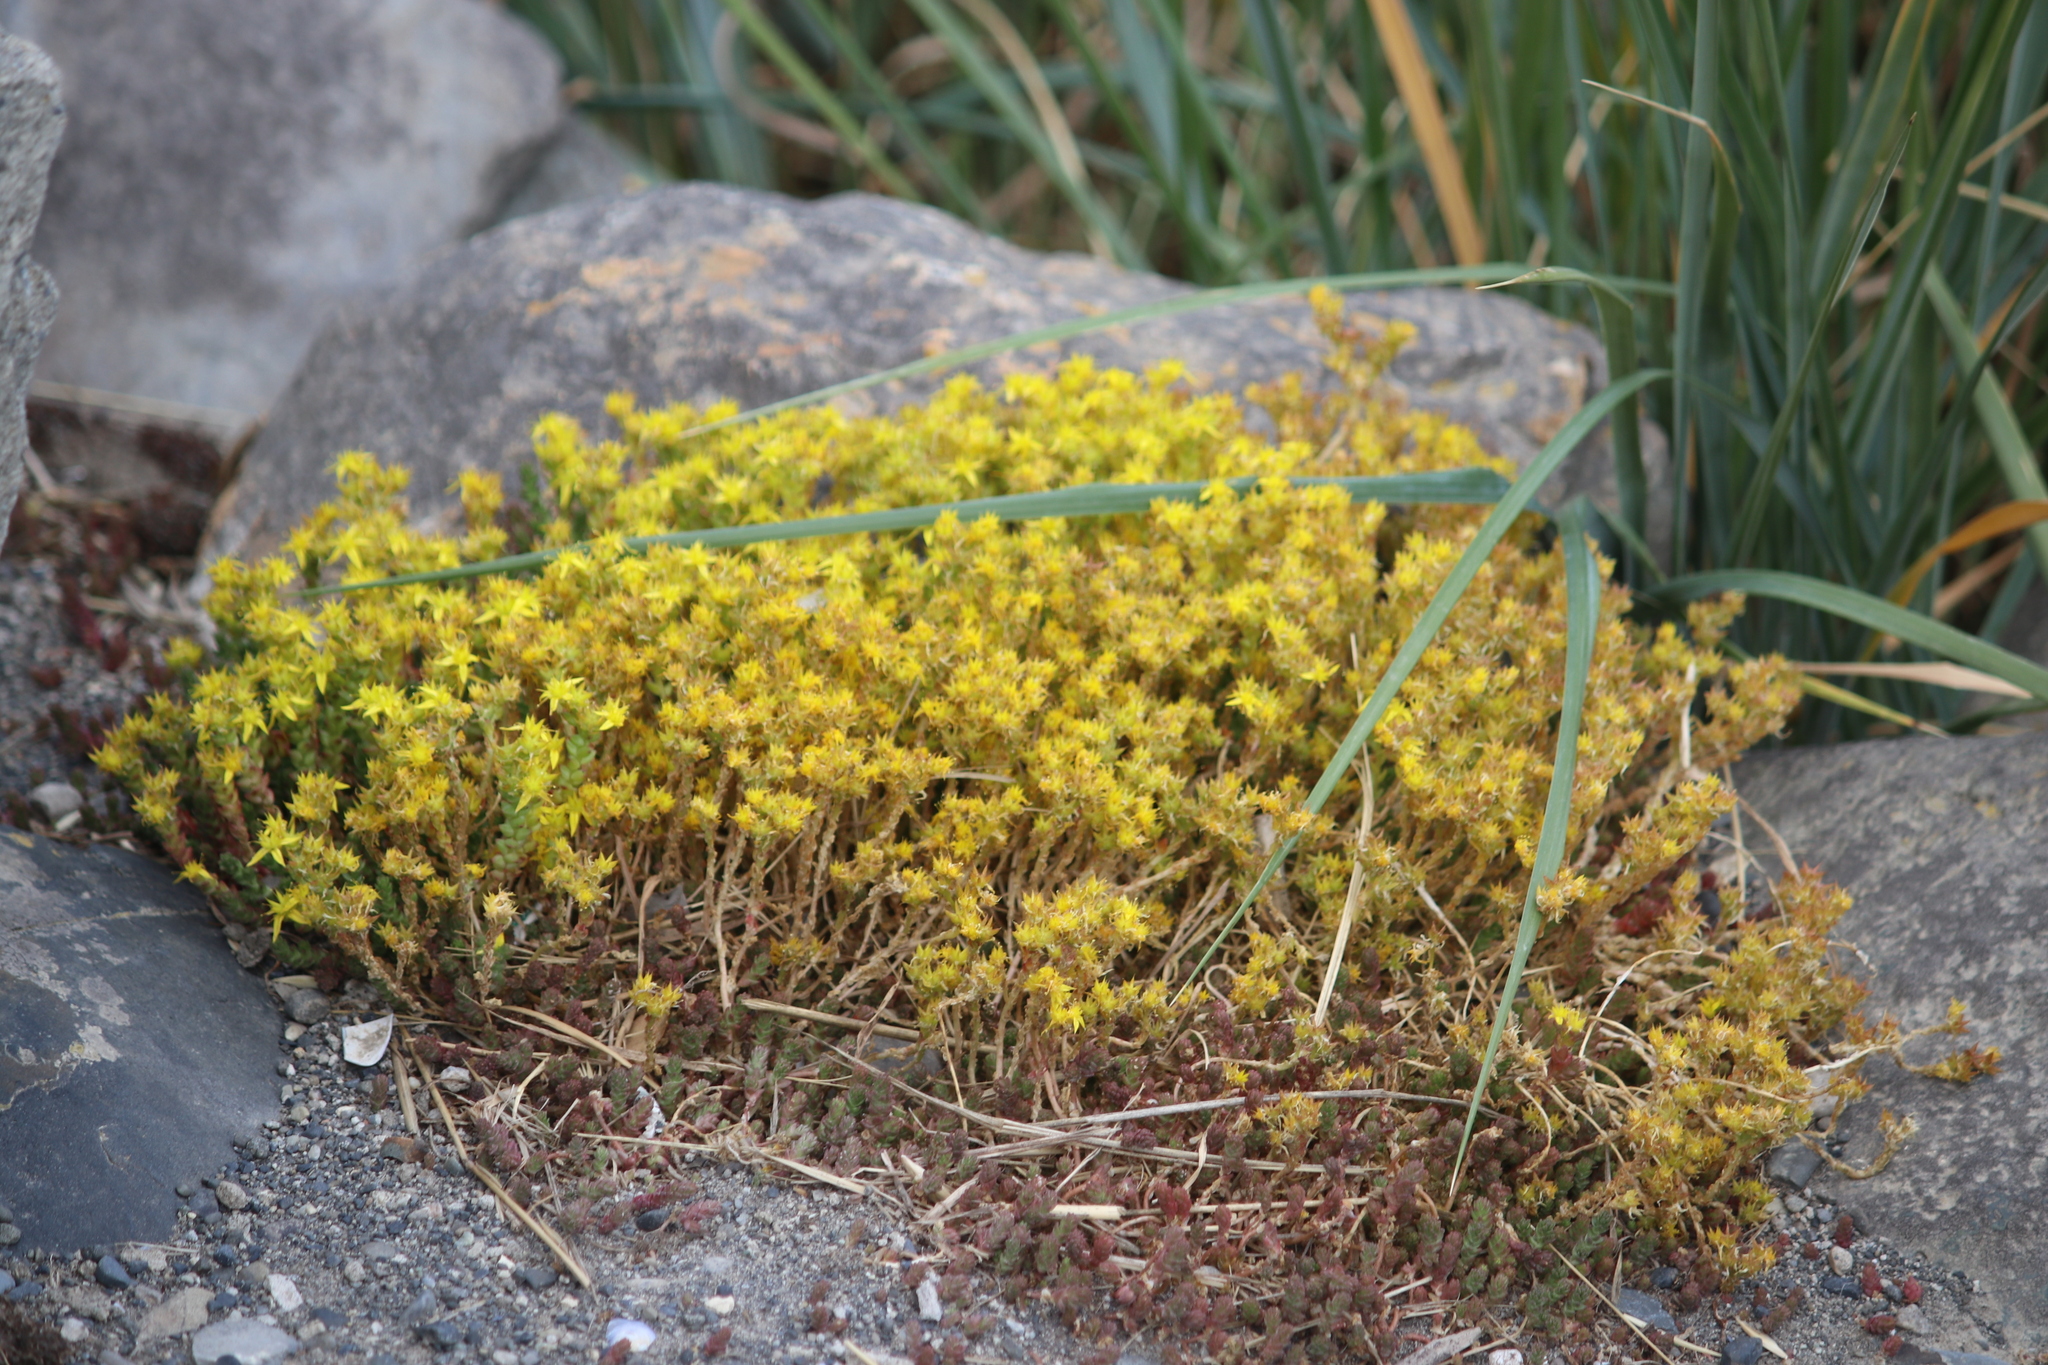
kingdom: Plantae
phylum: Tracheophyta
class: Magnoliopsida
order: Saxifragales
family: Crassulaceae
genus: Sedum
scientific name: Sedum acre
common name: Biting stonecrop
